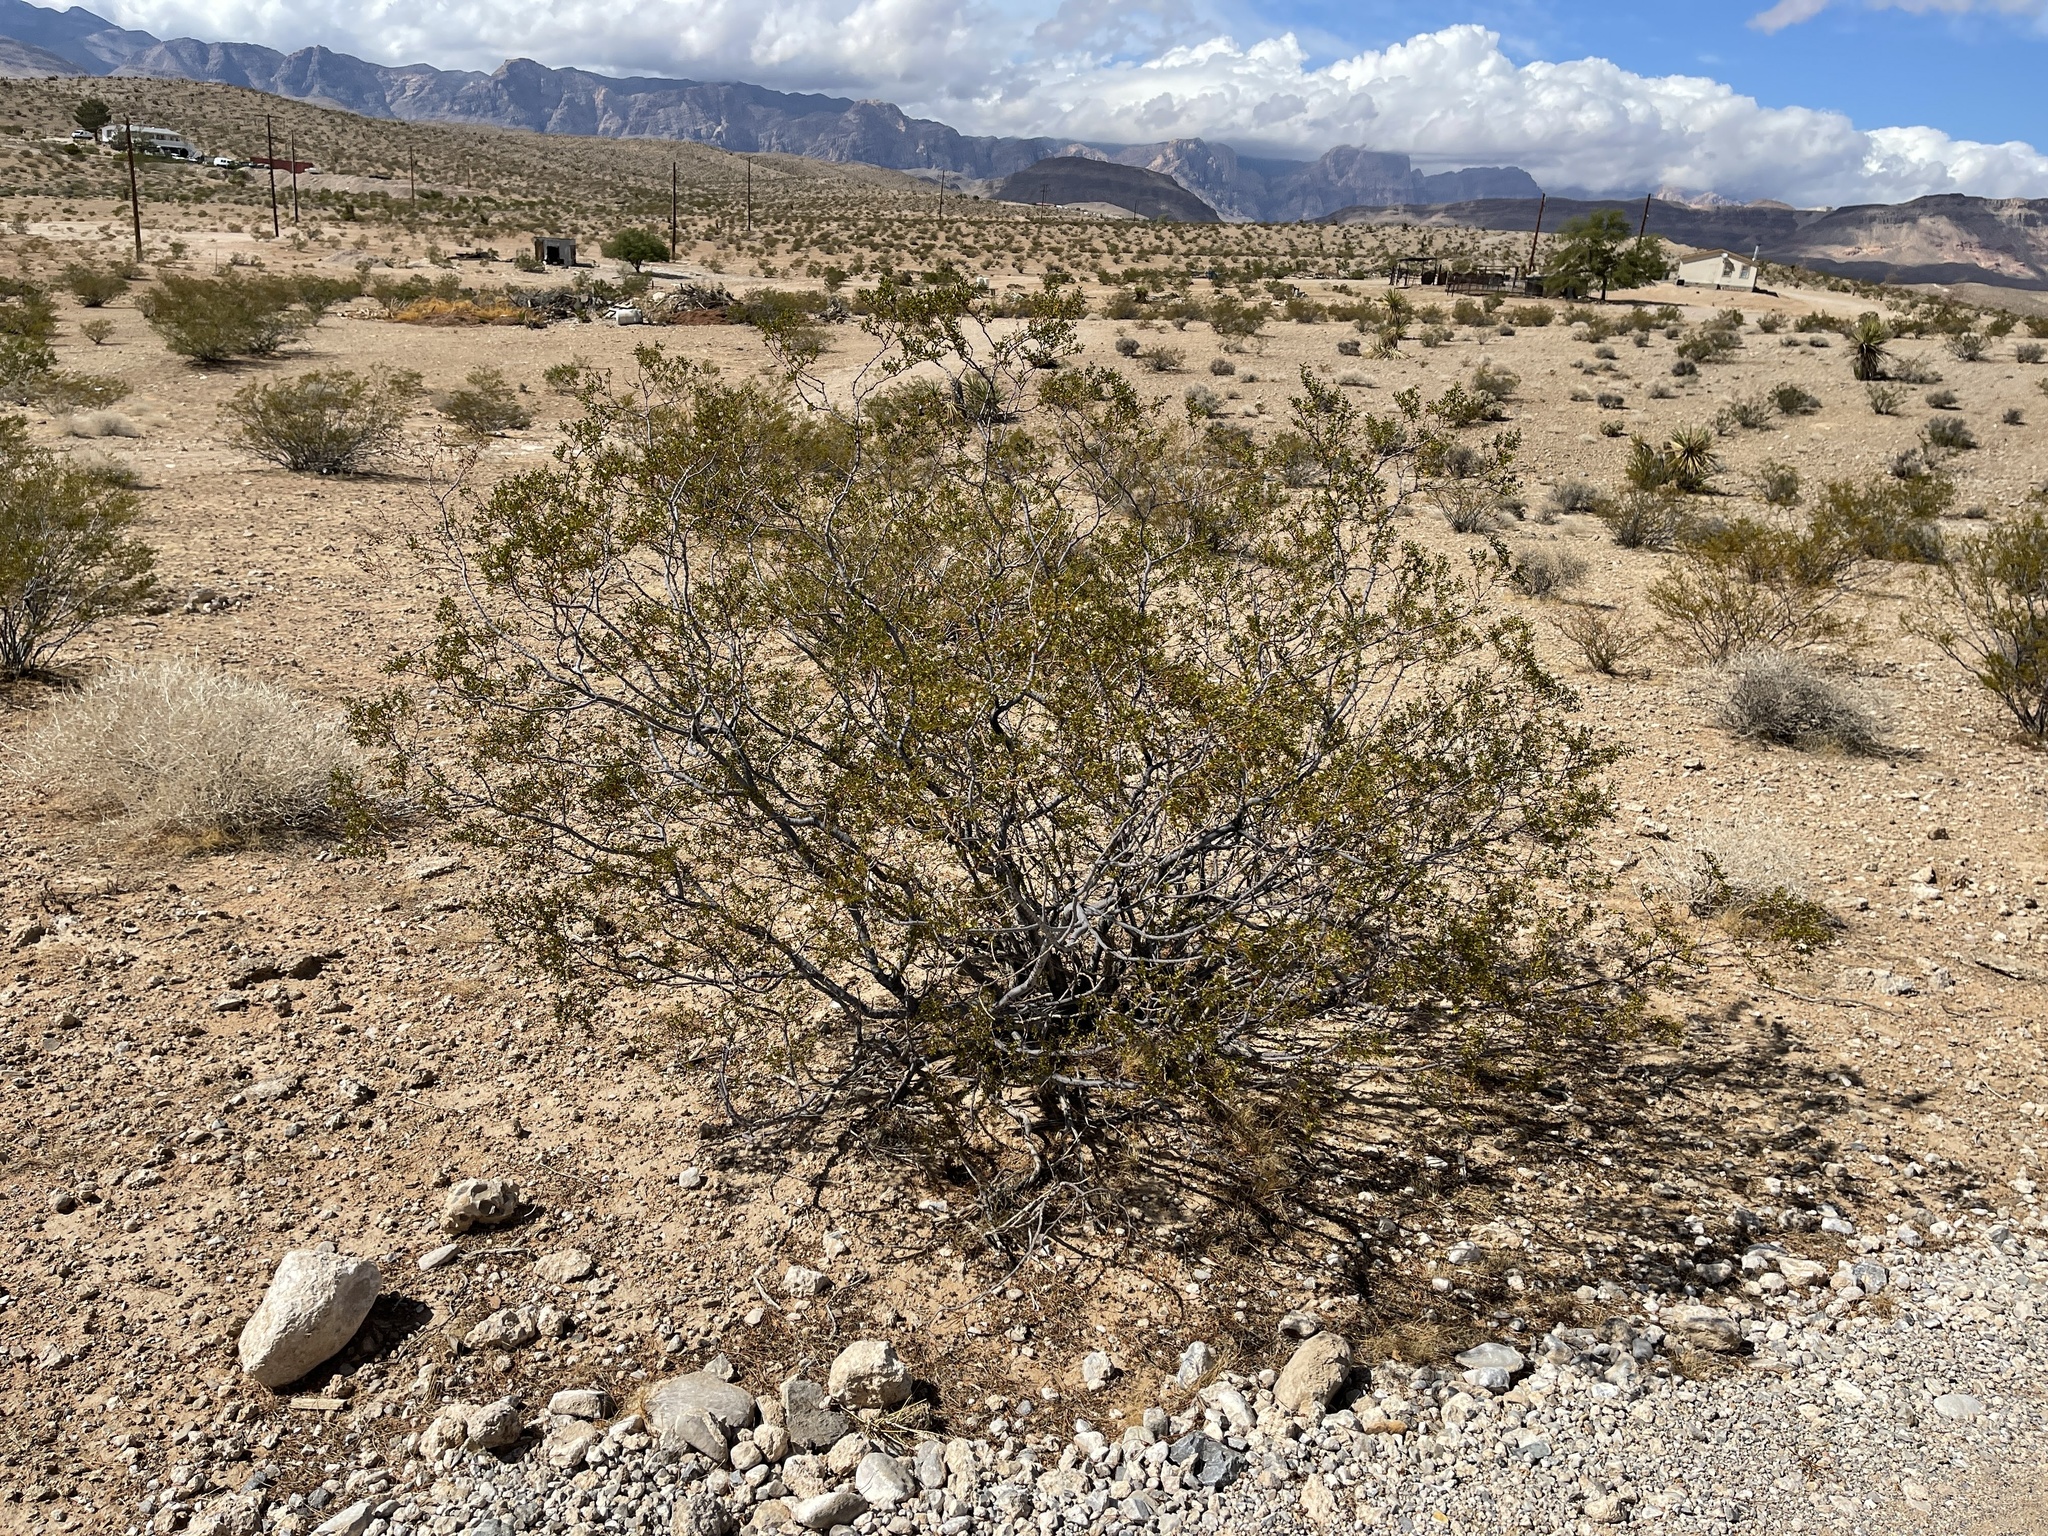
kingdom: Plantae
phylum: Tracheophyta
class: Magnoliopsida
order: Zygophyllales
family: Zygophyllaceae
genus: Larrea
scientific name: Larrea tridentata
